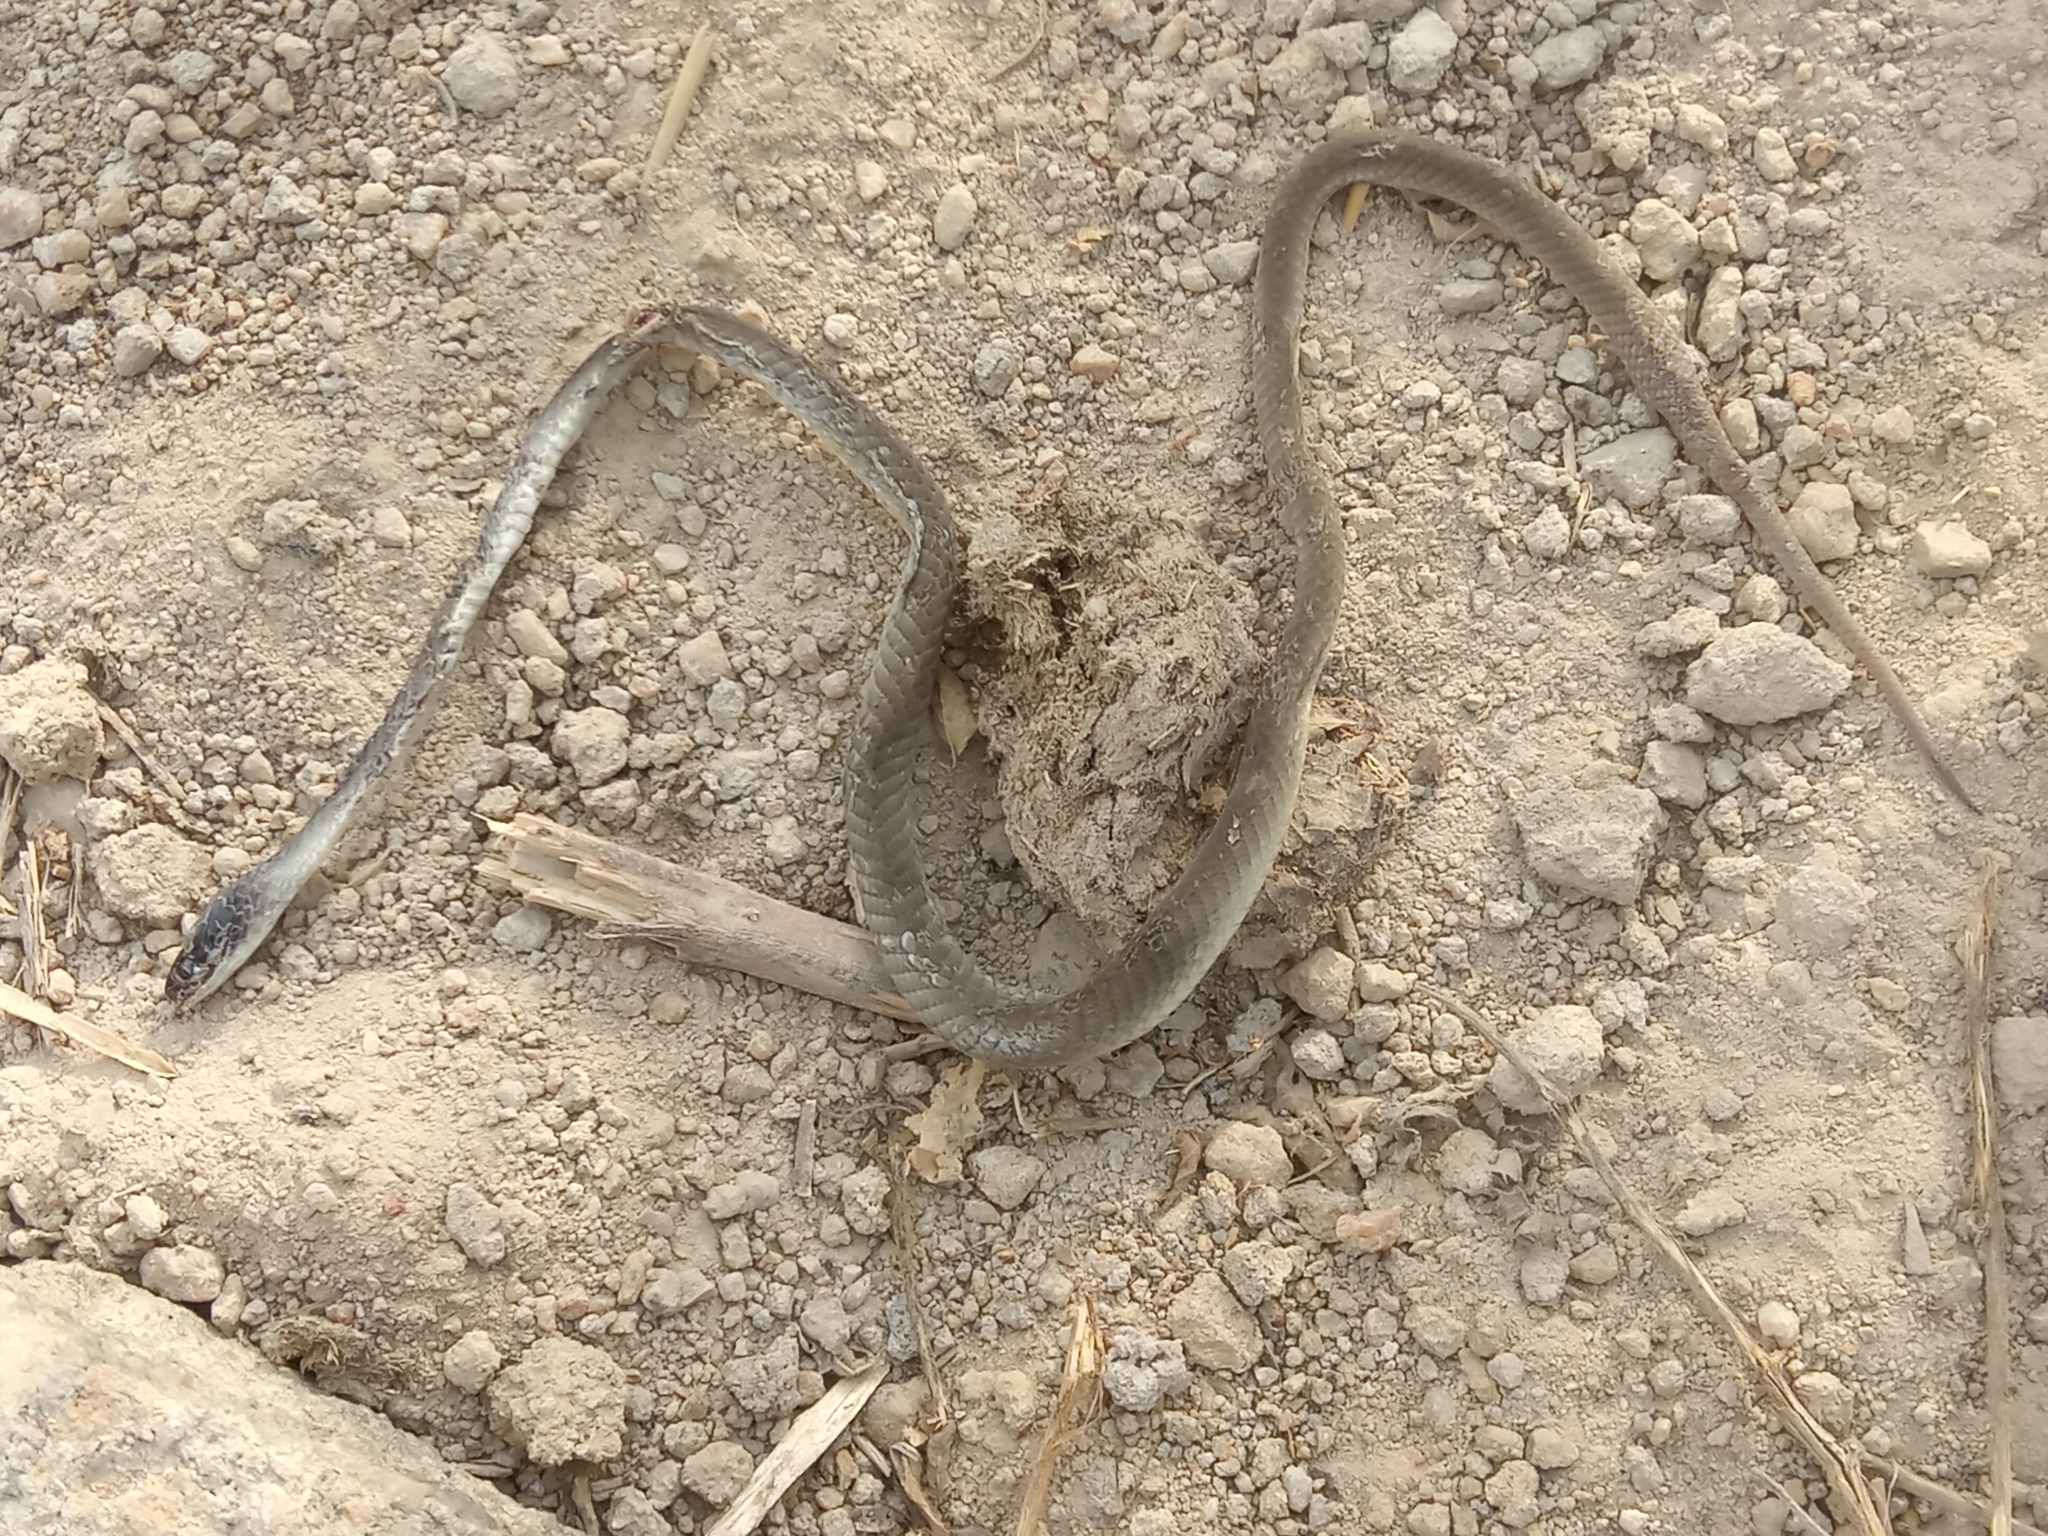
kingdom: Animalia
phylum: Chordata
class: Squamata
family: Colubridae
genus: Crotaphopeltis
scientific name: Crotaphopeltis hotamboeia
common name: Red-lipped snake
